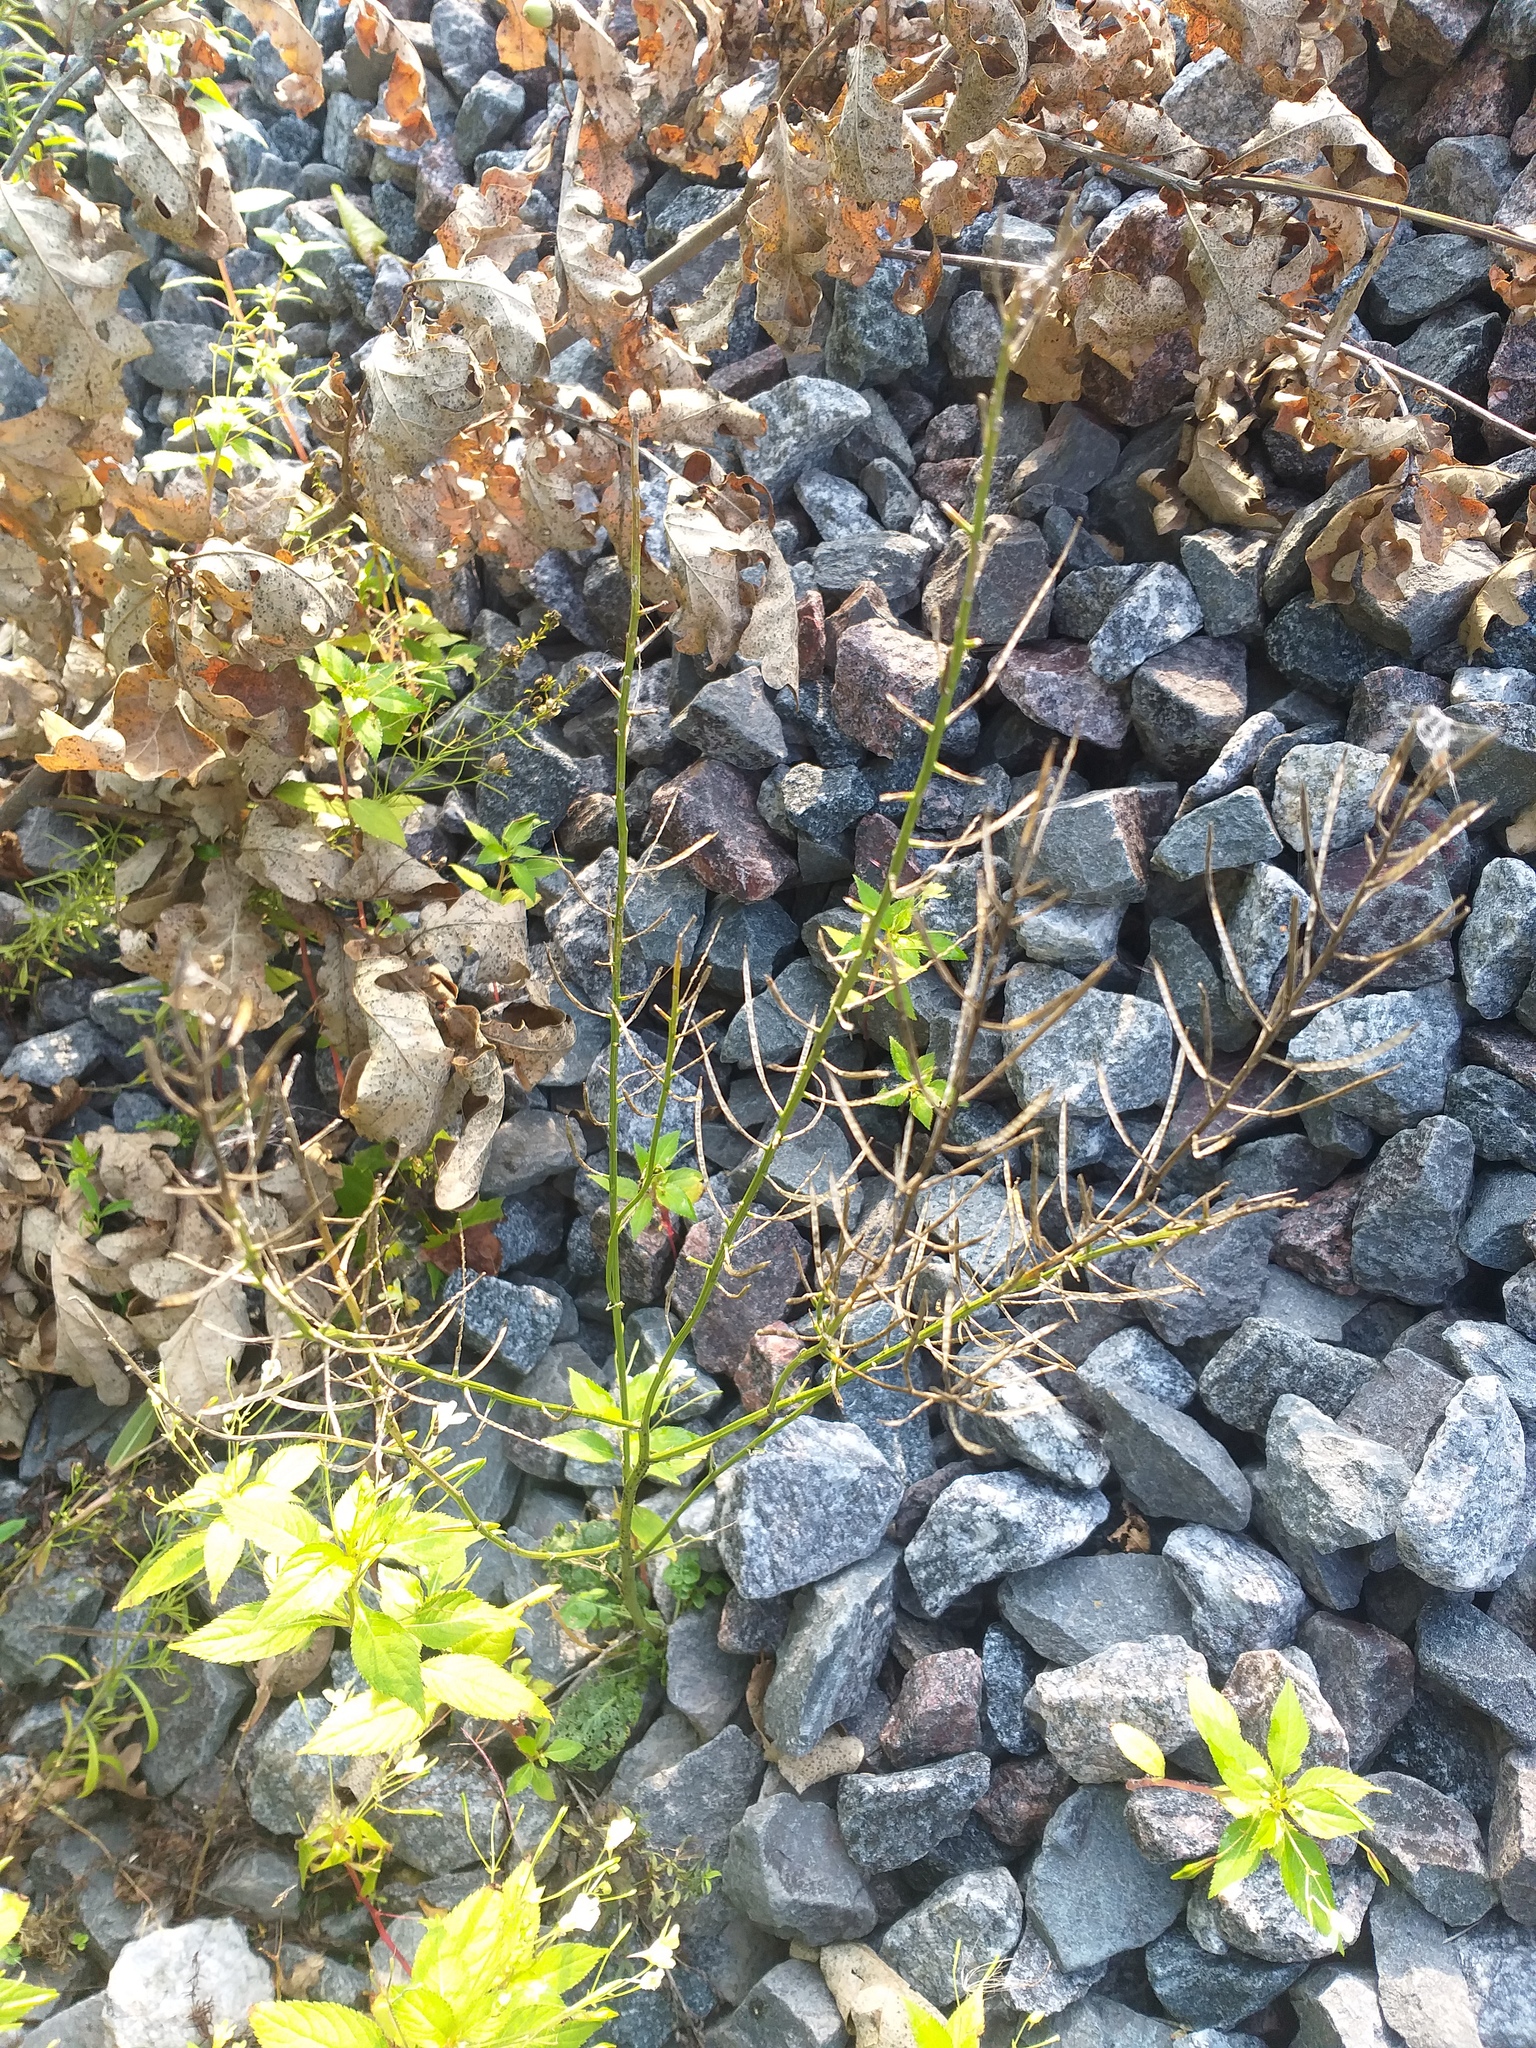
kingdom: Plantae
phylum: Tracheophyta
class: Magnoliopsida
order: Brassicales
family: Brassicaceae
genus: Barbarea
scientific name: Barbarea vulgaris
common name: Cressy-greens
